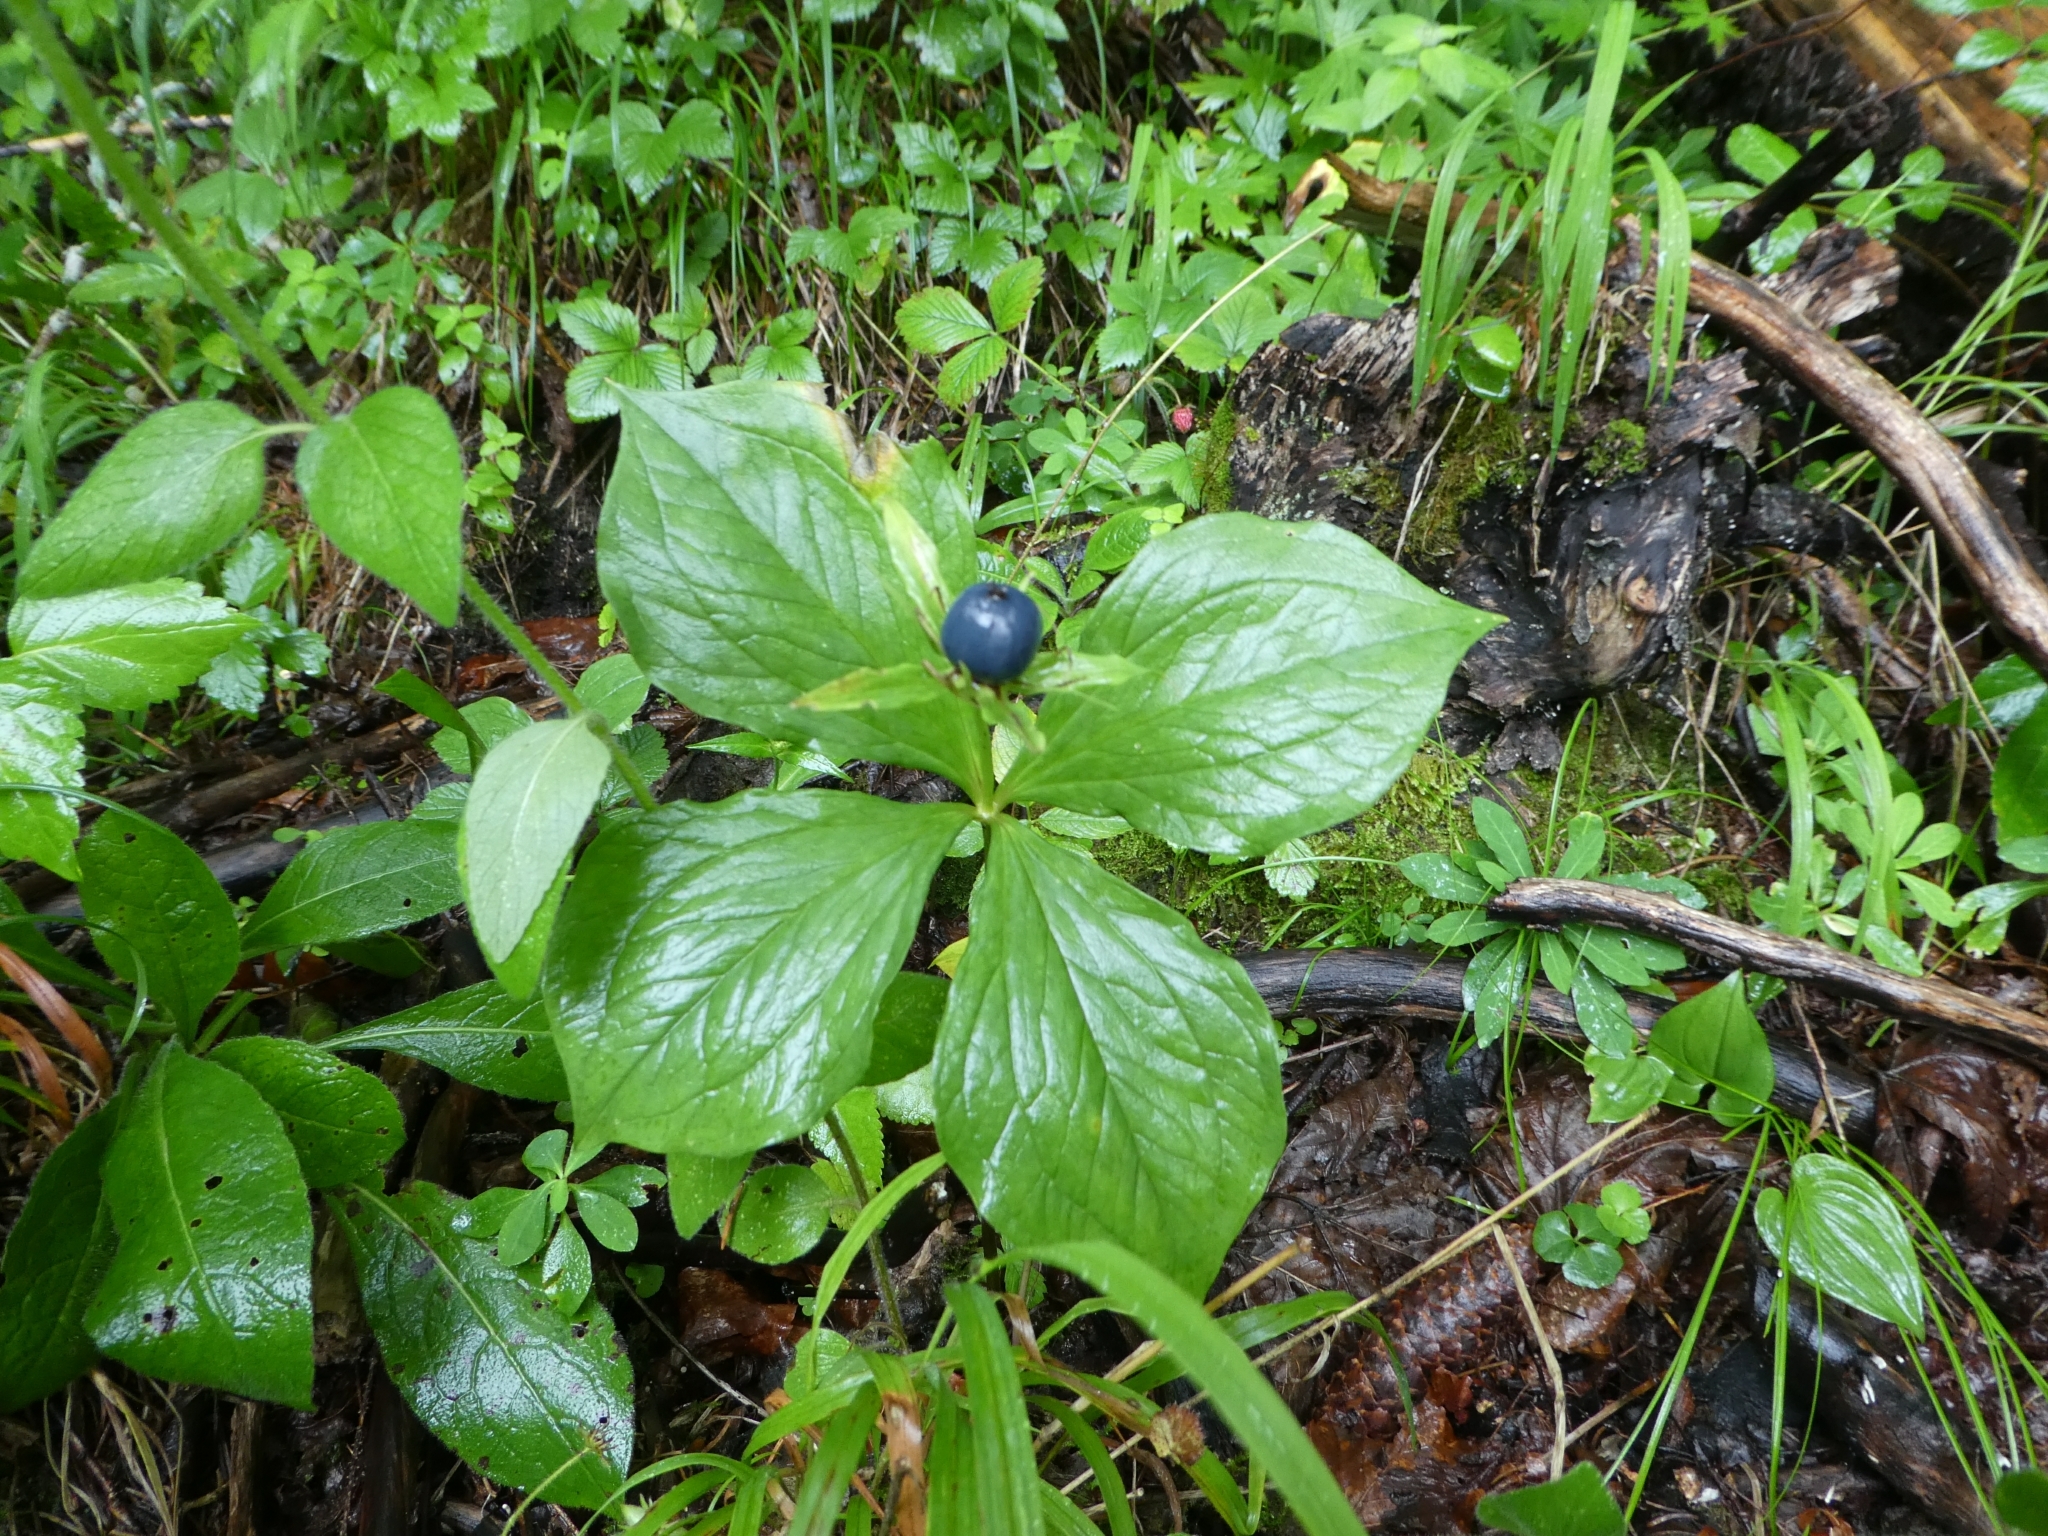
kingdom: Plantae
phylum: Tracheophyta
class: Liliopsida
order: Liliales
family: Melanthiaceae
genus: Paris
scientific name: Paris quadrifolia
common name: Herb-paris
